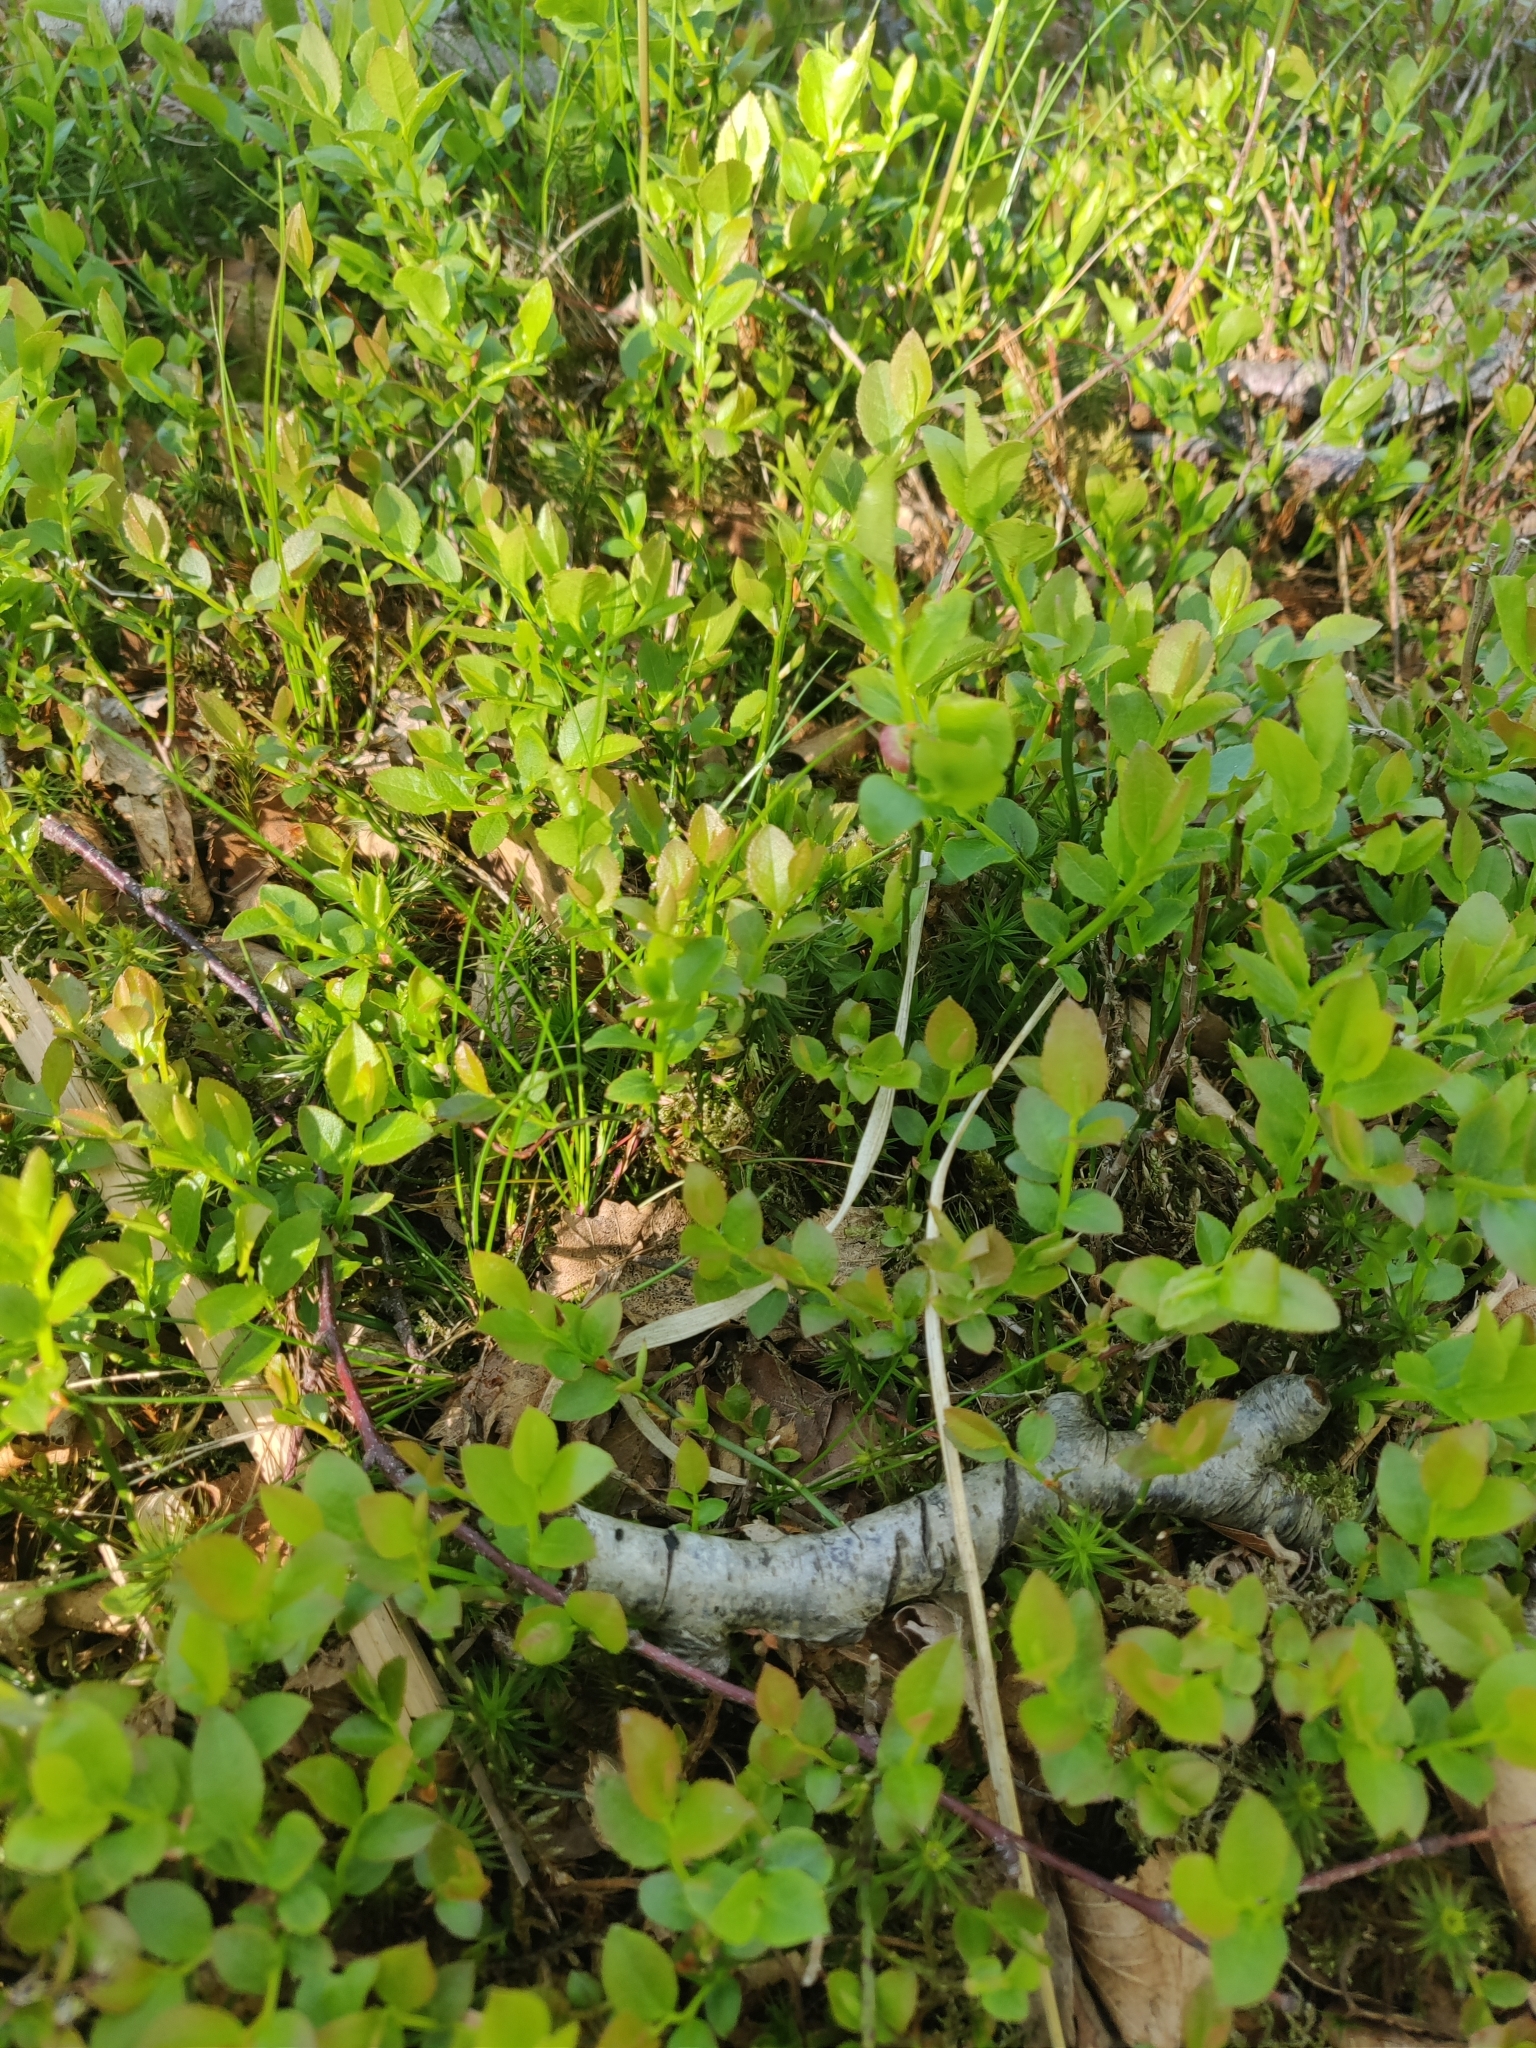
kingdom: Plantae
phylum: Tracheophyta
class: Magnoliopsida
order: Ericales
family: Ericaceae
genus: Vaccinium
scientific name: Vaccinium myrtillus
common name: Bilberry
